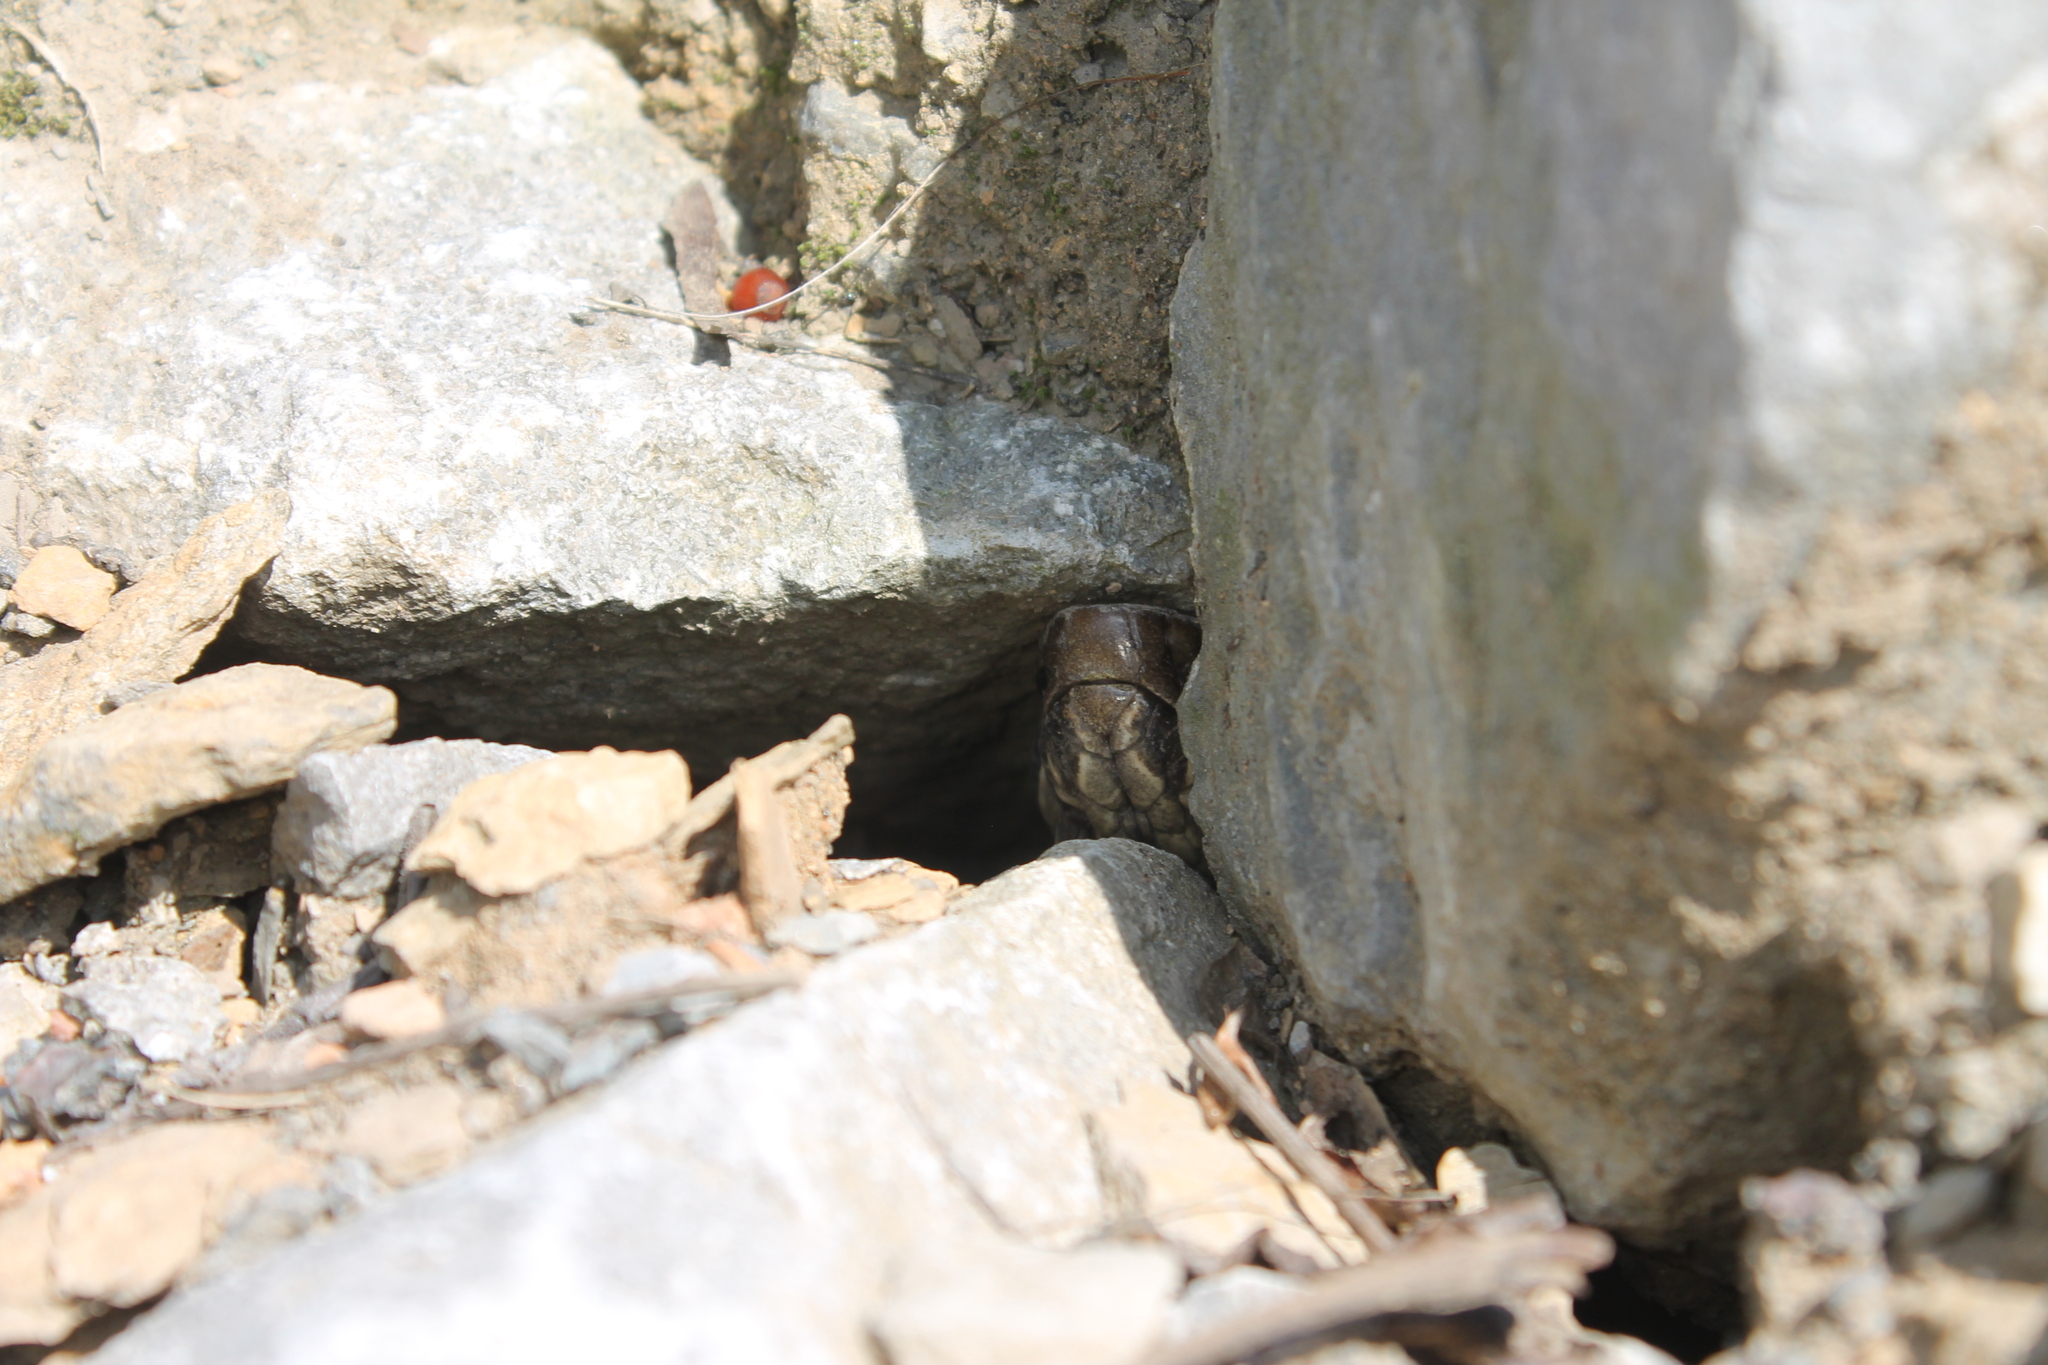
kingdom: Animalia
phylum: Chordata
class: Squamata
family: Viperidae
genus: Agkistrodon
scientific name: Agkistrodon piscivorus
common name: Cottonmouth
